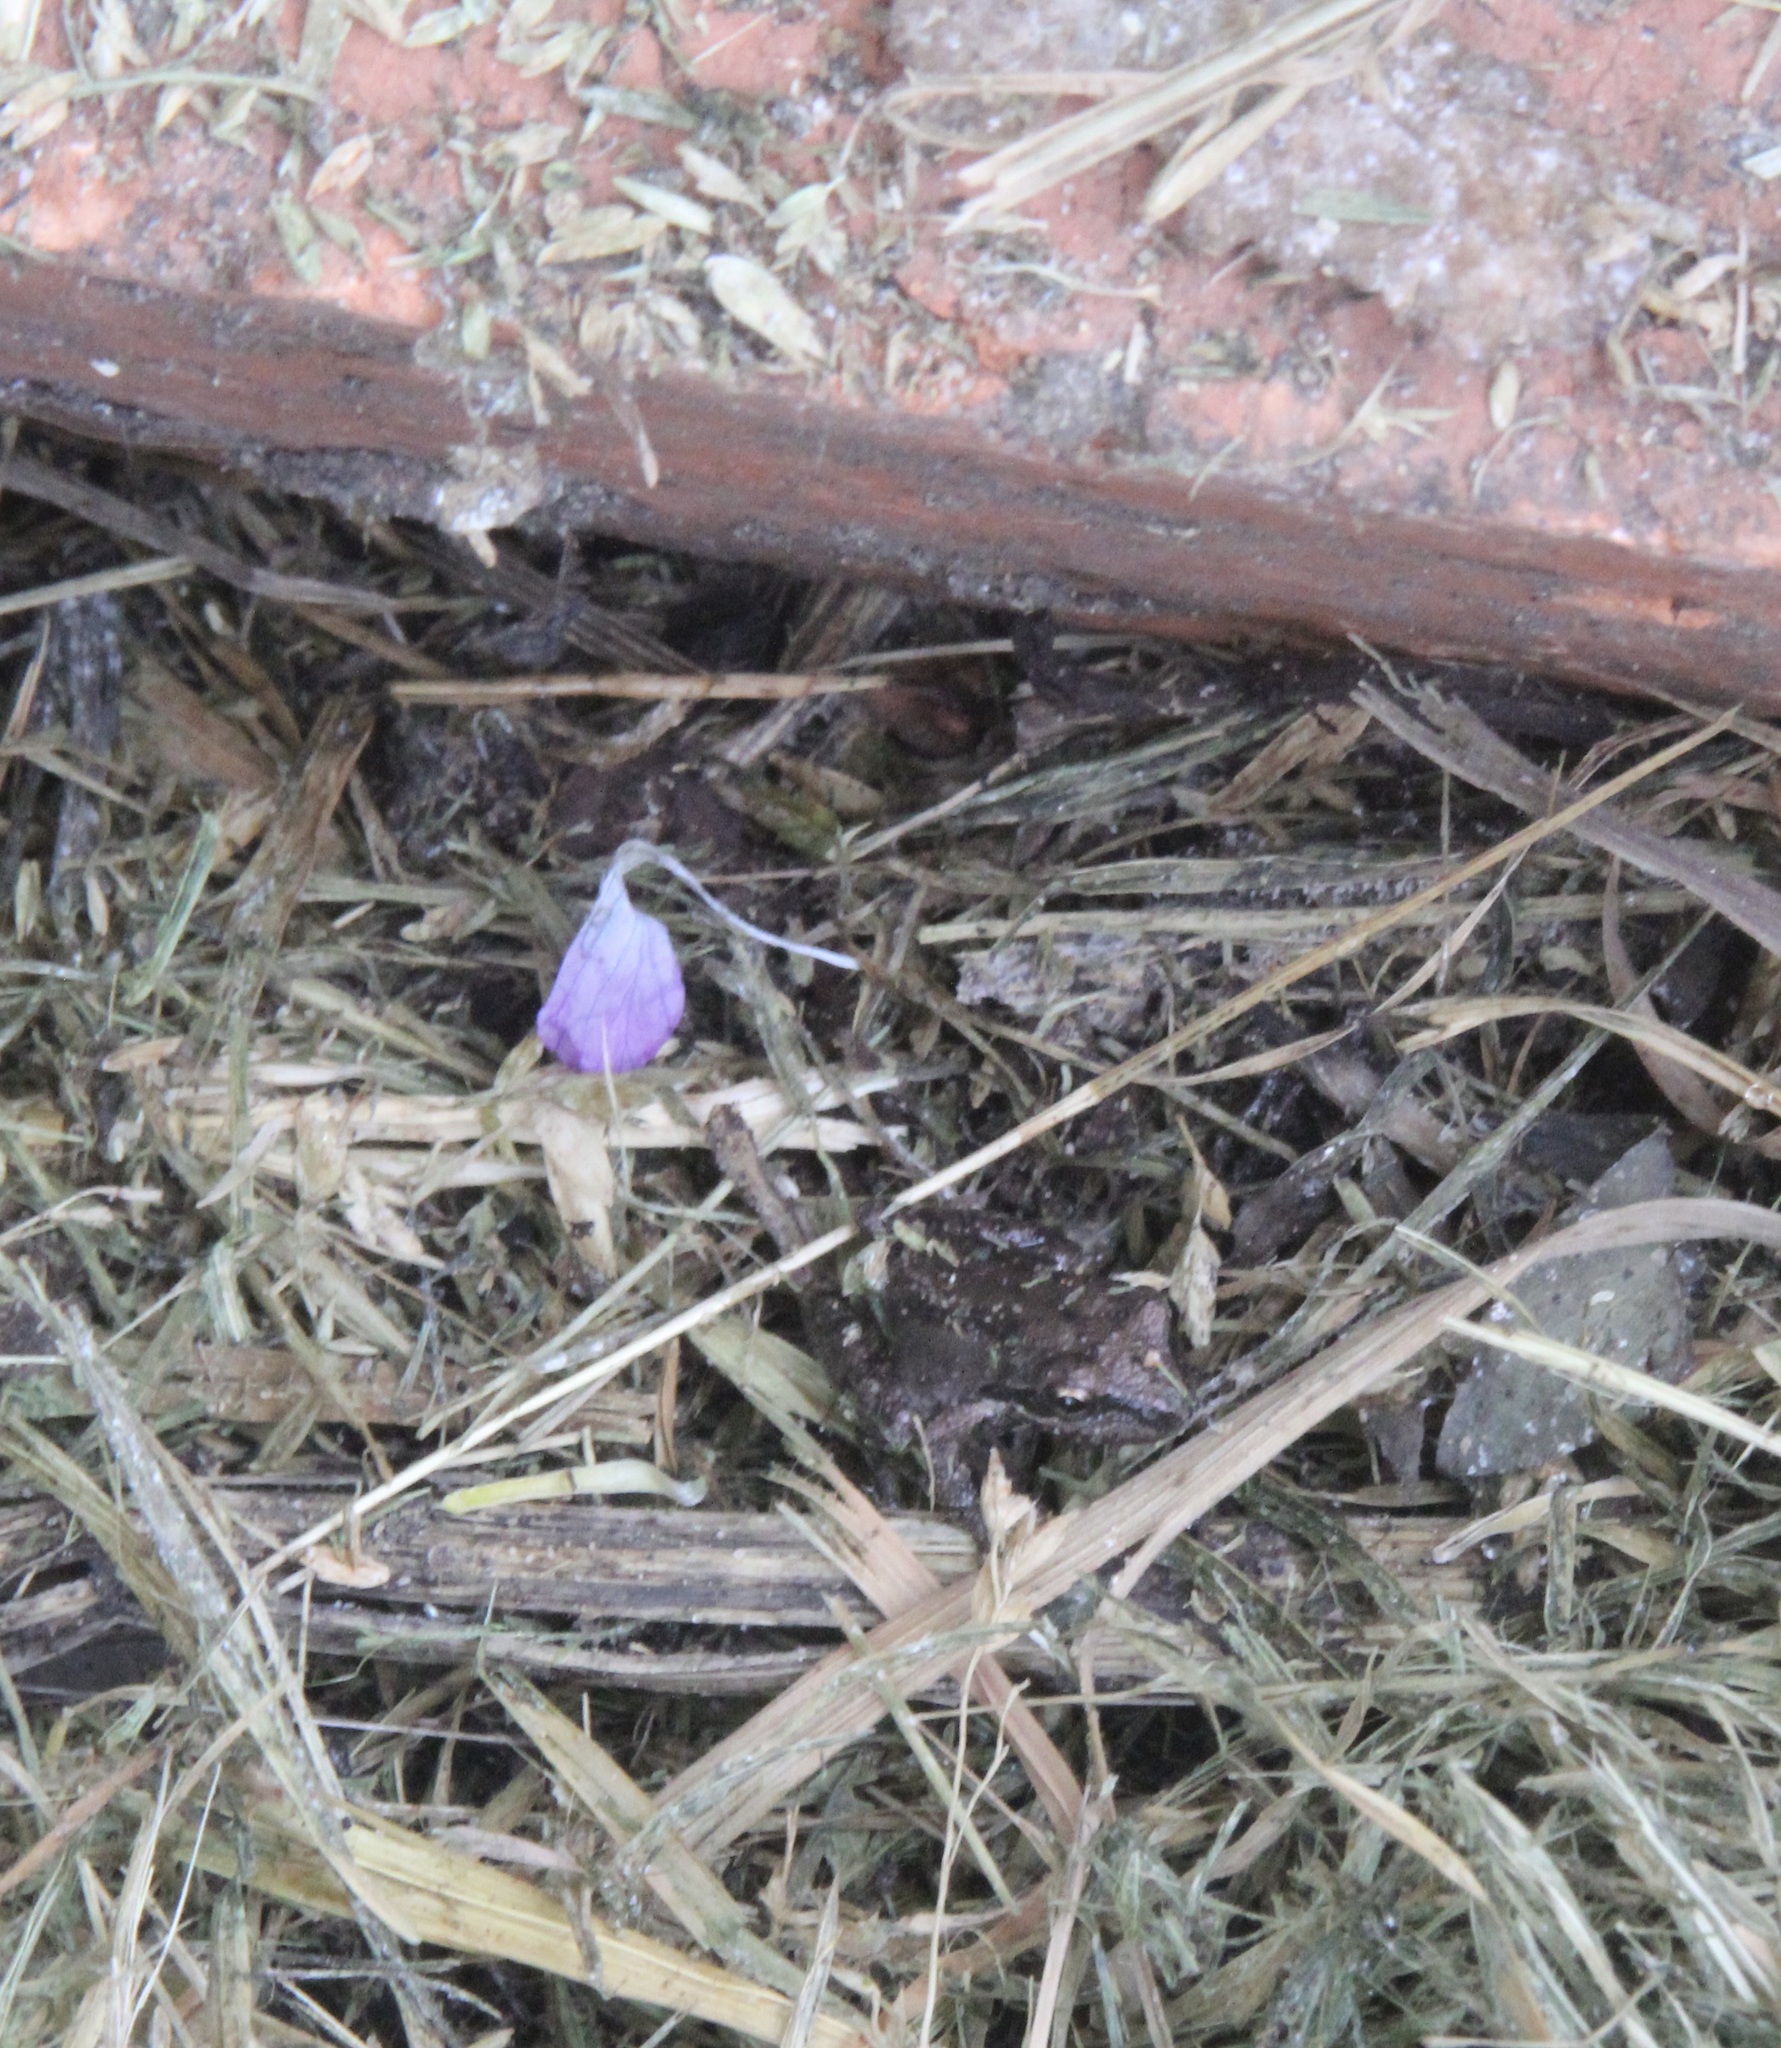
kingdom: Animalia
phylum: Chordata
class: Amphibia
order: Anura
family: Hylidae
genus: Pseudacris
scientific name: Pseudacris regilla
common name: Pacific chorus frog
